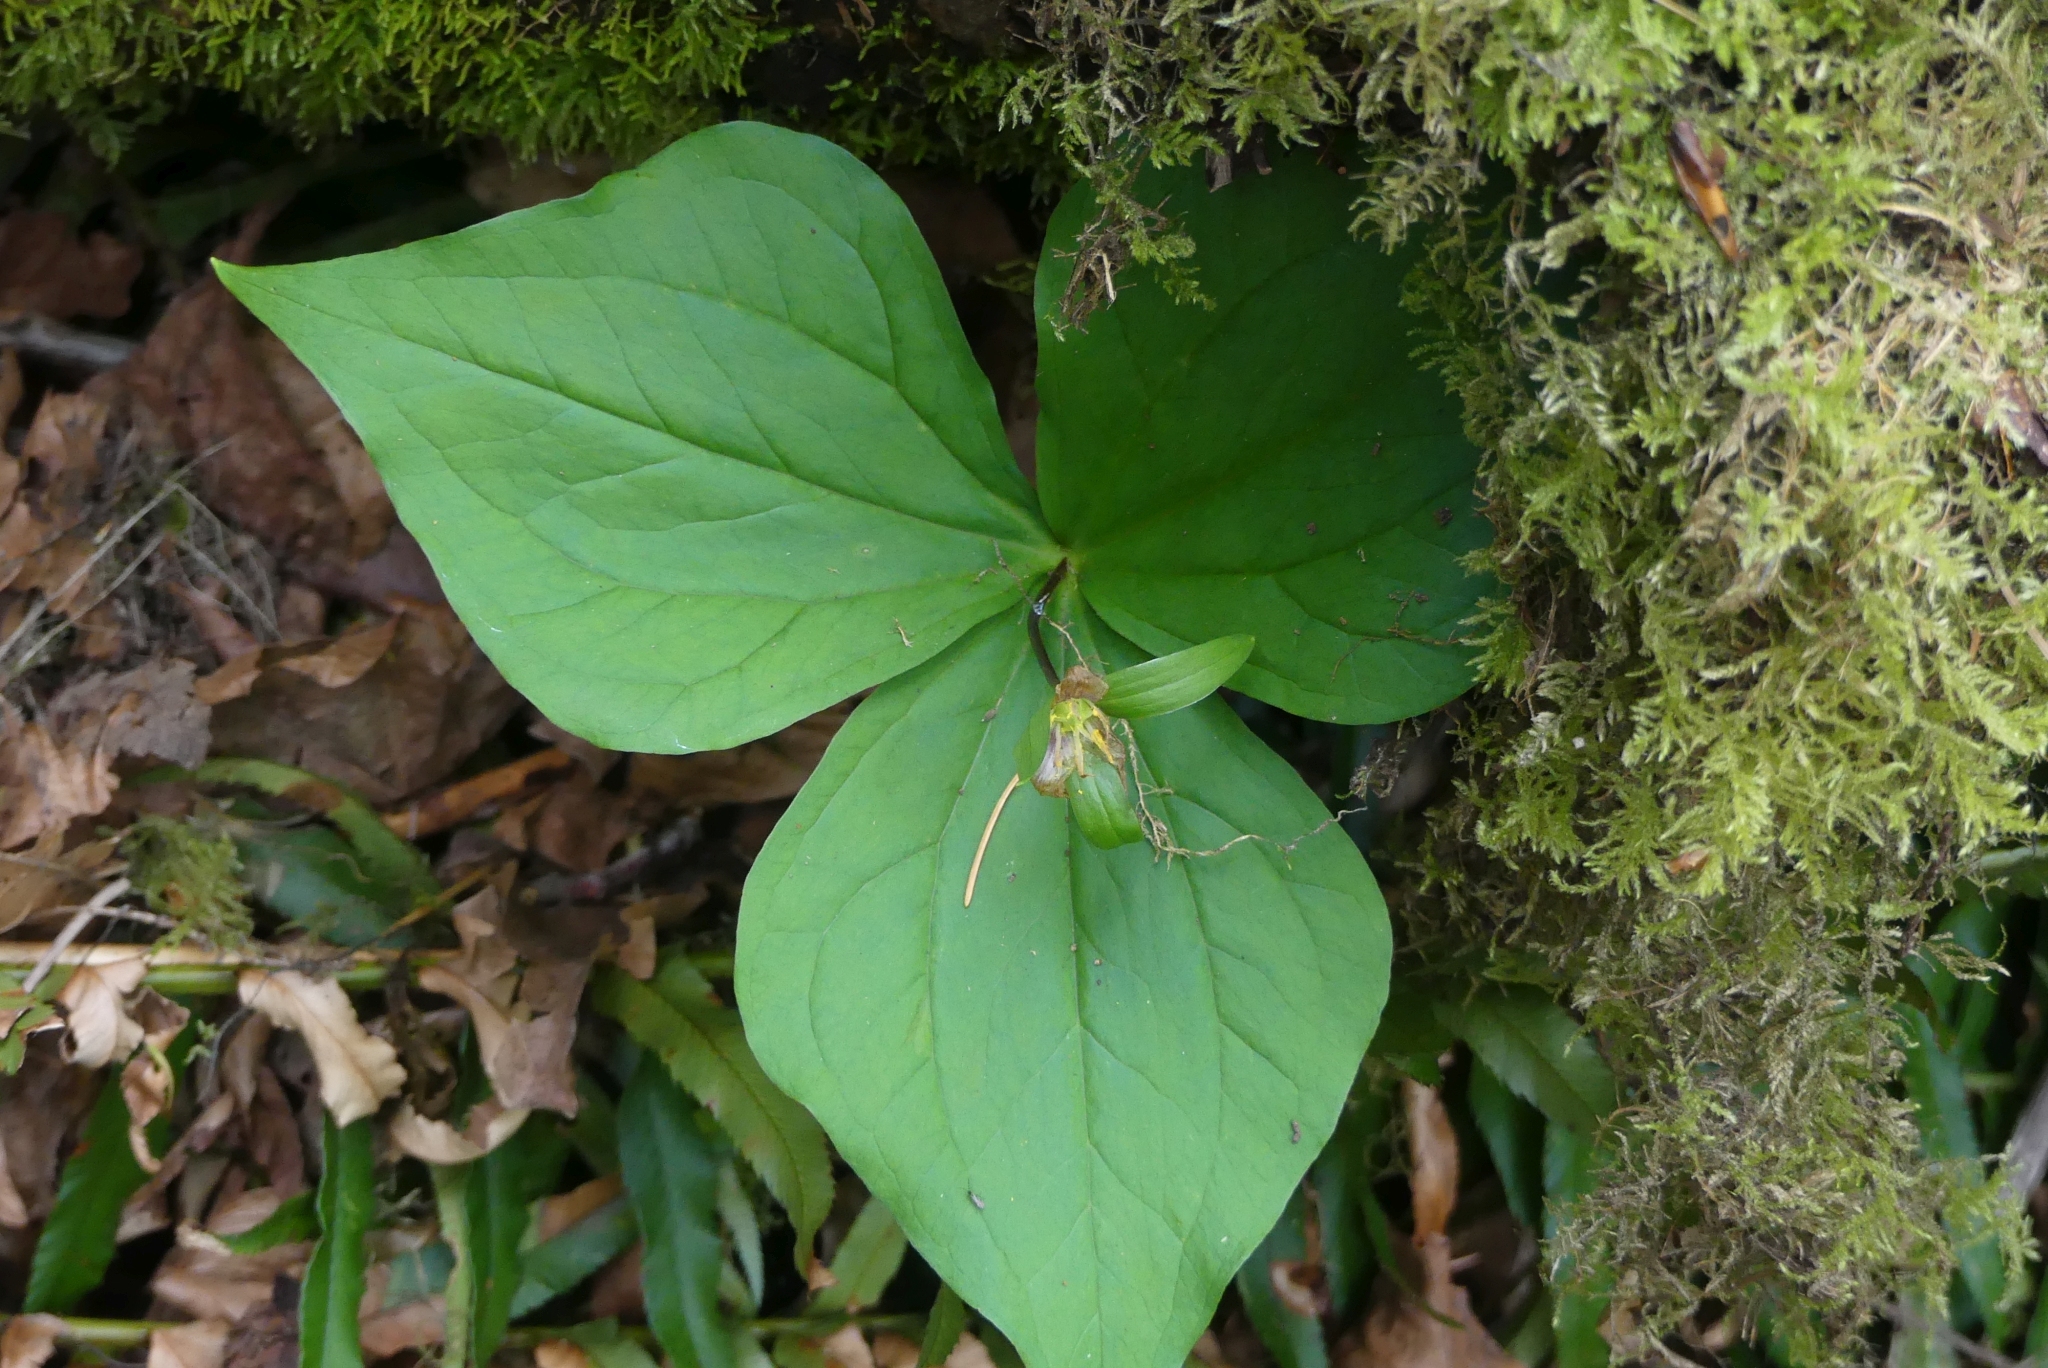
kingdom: Plantae
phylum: Tracheophyta
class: Liliopsida
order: Liliales
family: Melanthiaceae
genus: Trillium
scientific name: Trillium ovatum
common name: Pacific trillium
